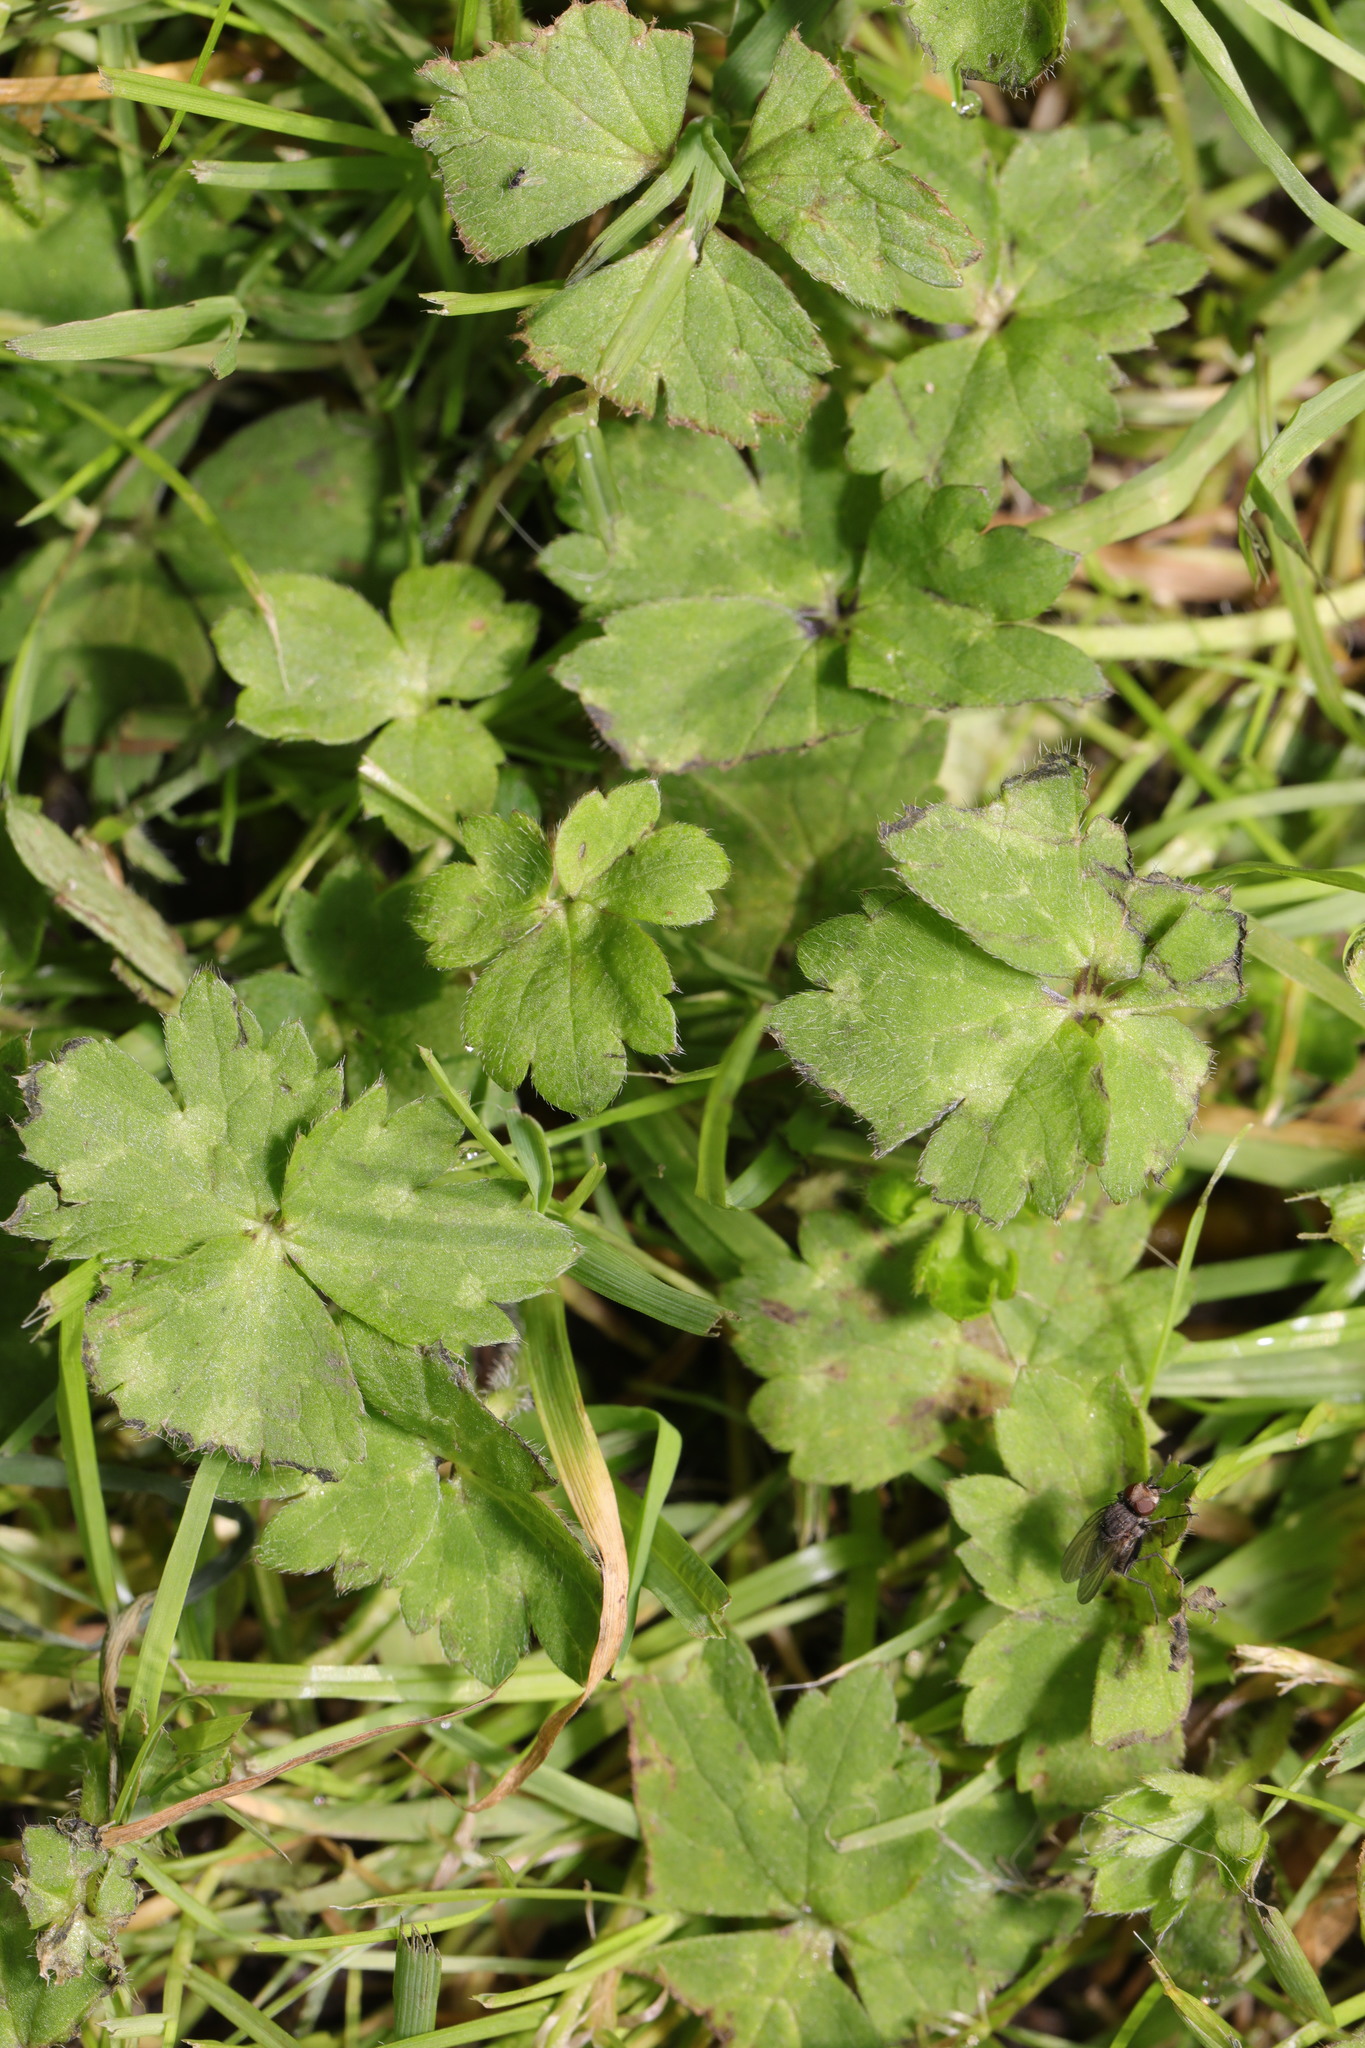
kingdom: Plantae
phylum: Tracheophyta
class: Magnoliopsida
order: Ranunculales
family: Ranunculaceae
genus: Ranunculus
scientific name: Ranunculus repens
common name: Creeping buttercup
